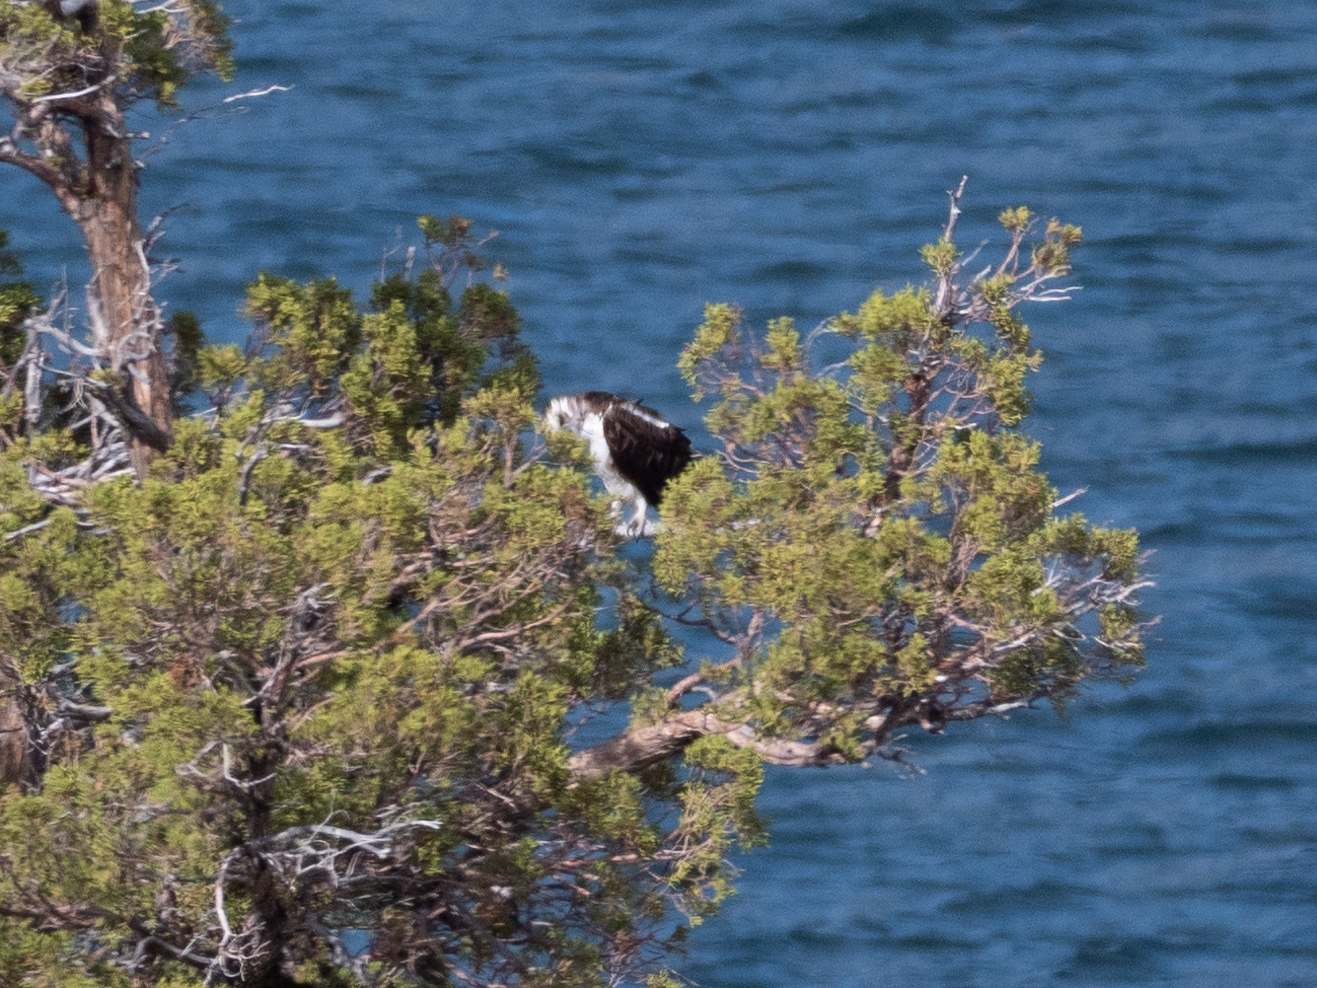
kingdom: Animalia
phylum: Chordata
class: Aves
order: Accipitriformes
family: Pandionidae
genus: Pandion
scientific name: Pandion haliaetus
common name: Osprey
